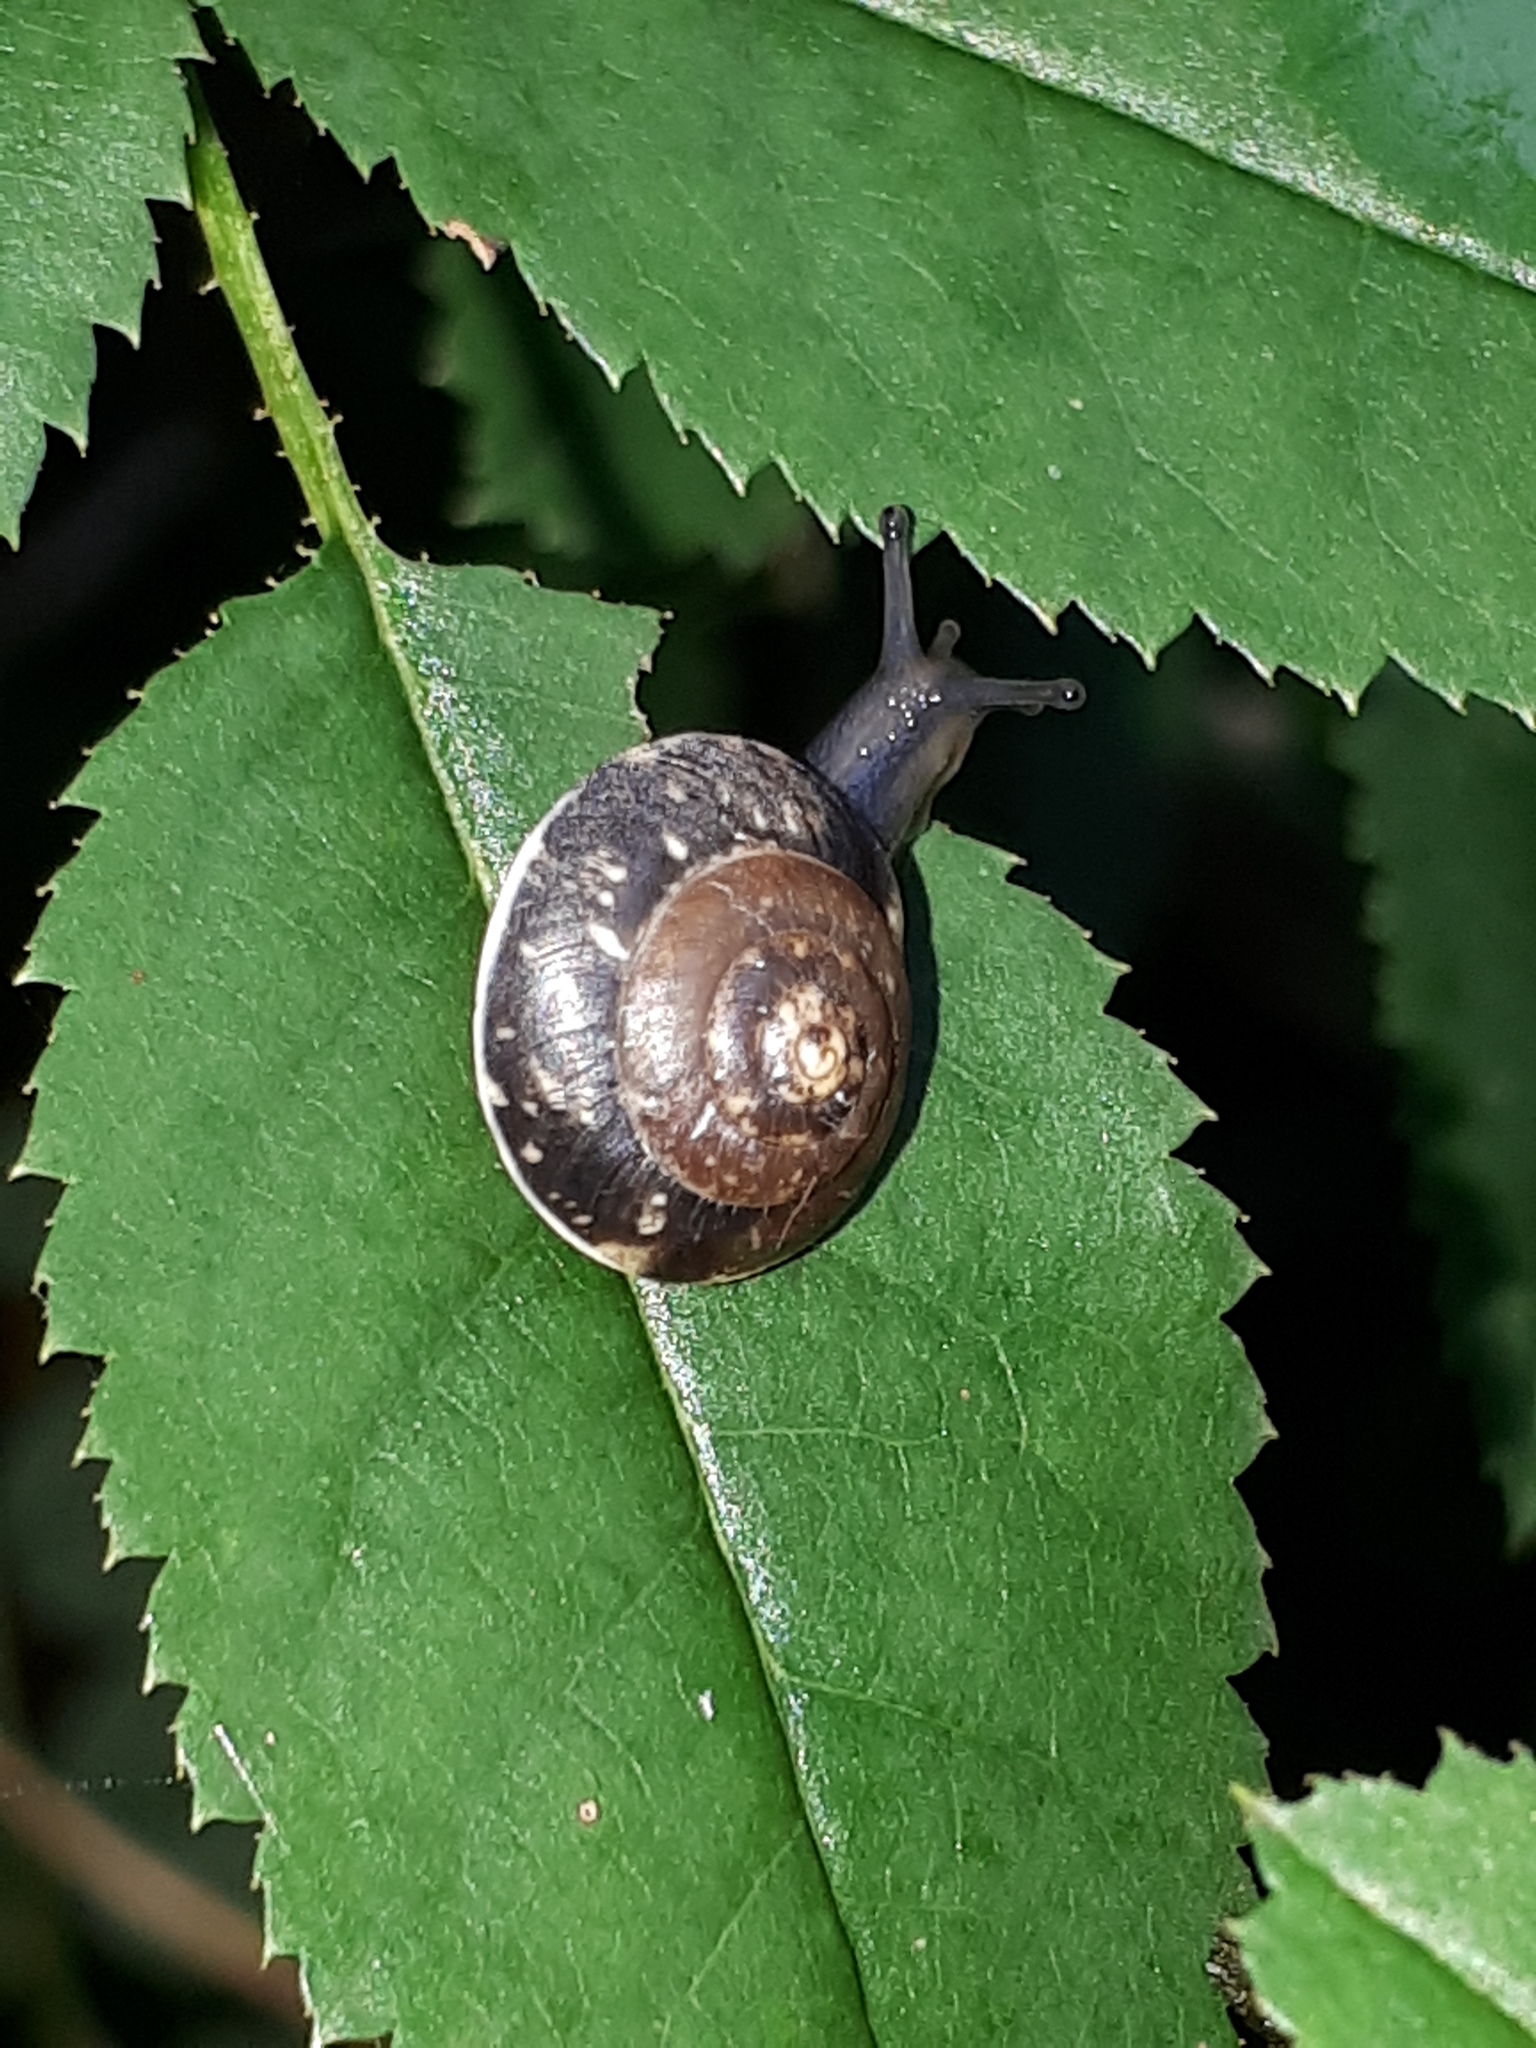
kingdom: Animalia
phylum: Mollusca
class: Gastropoda
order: Stylommatophora
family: Hygromiidae
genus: Hygromia
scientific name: Hygromia cinctella
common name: Girdled snail
